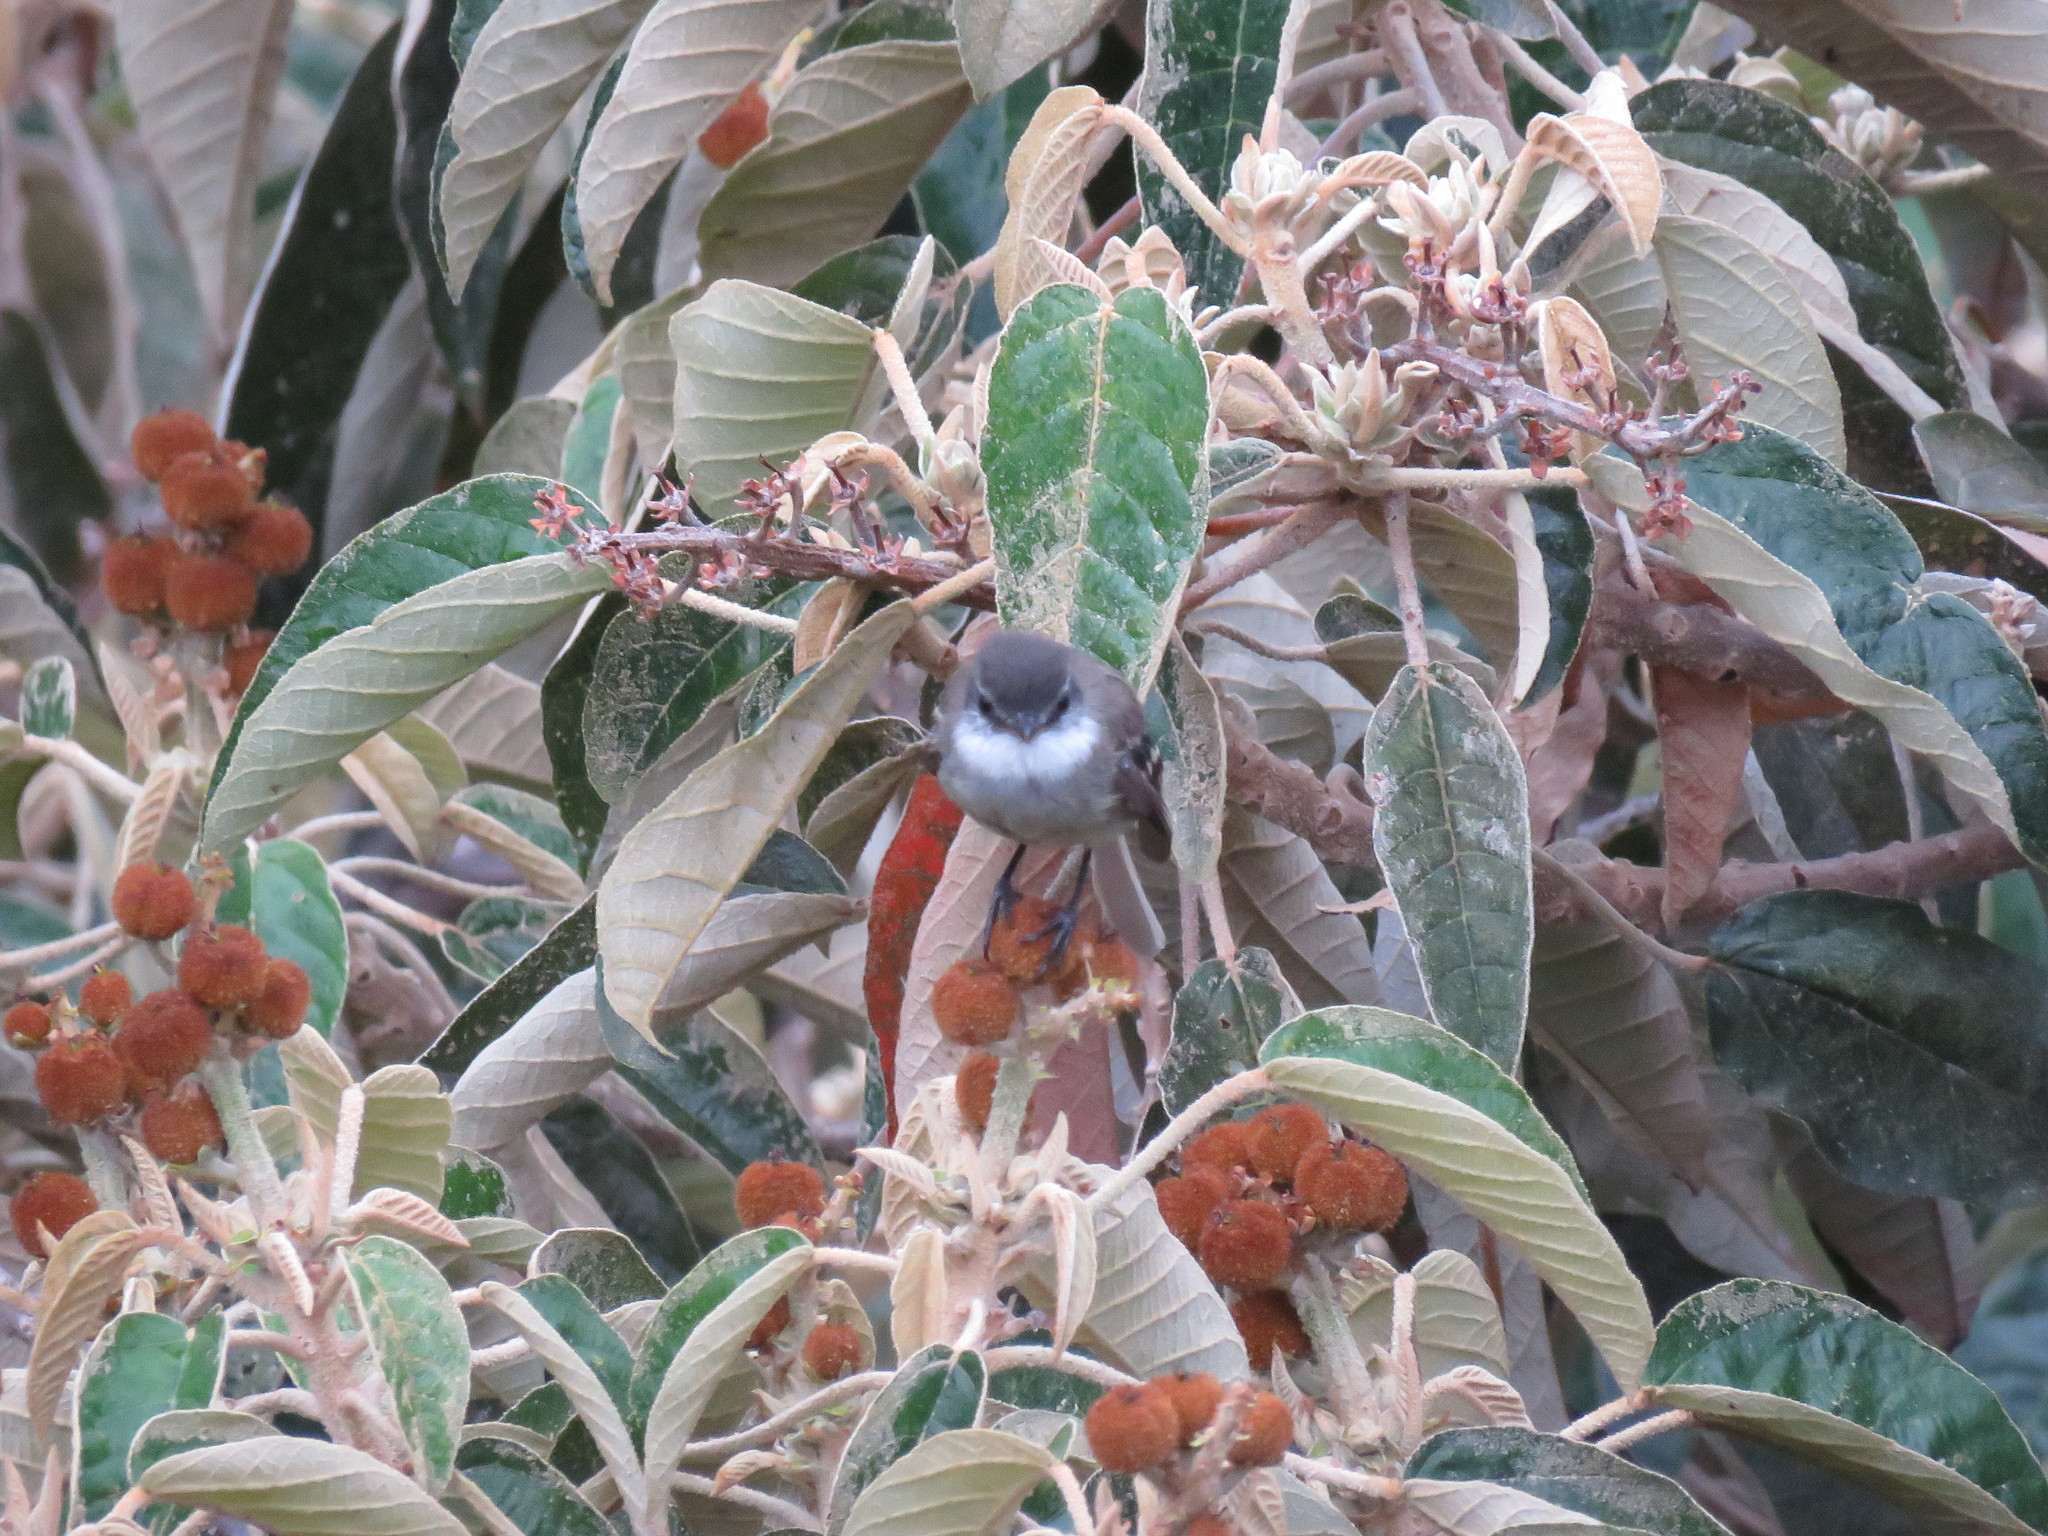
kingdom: Animalia
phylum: Chordata
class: Aves
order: Passeriformes
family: Tyrannidae
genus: Mecocerculus
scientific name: Mecocerculus leucophrys
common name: White-throated tyrannulet
